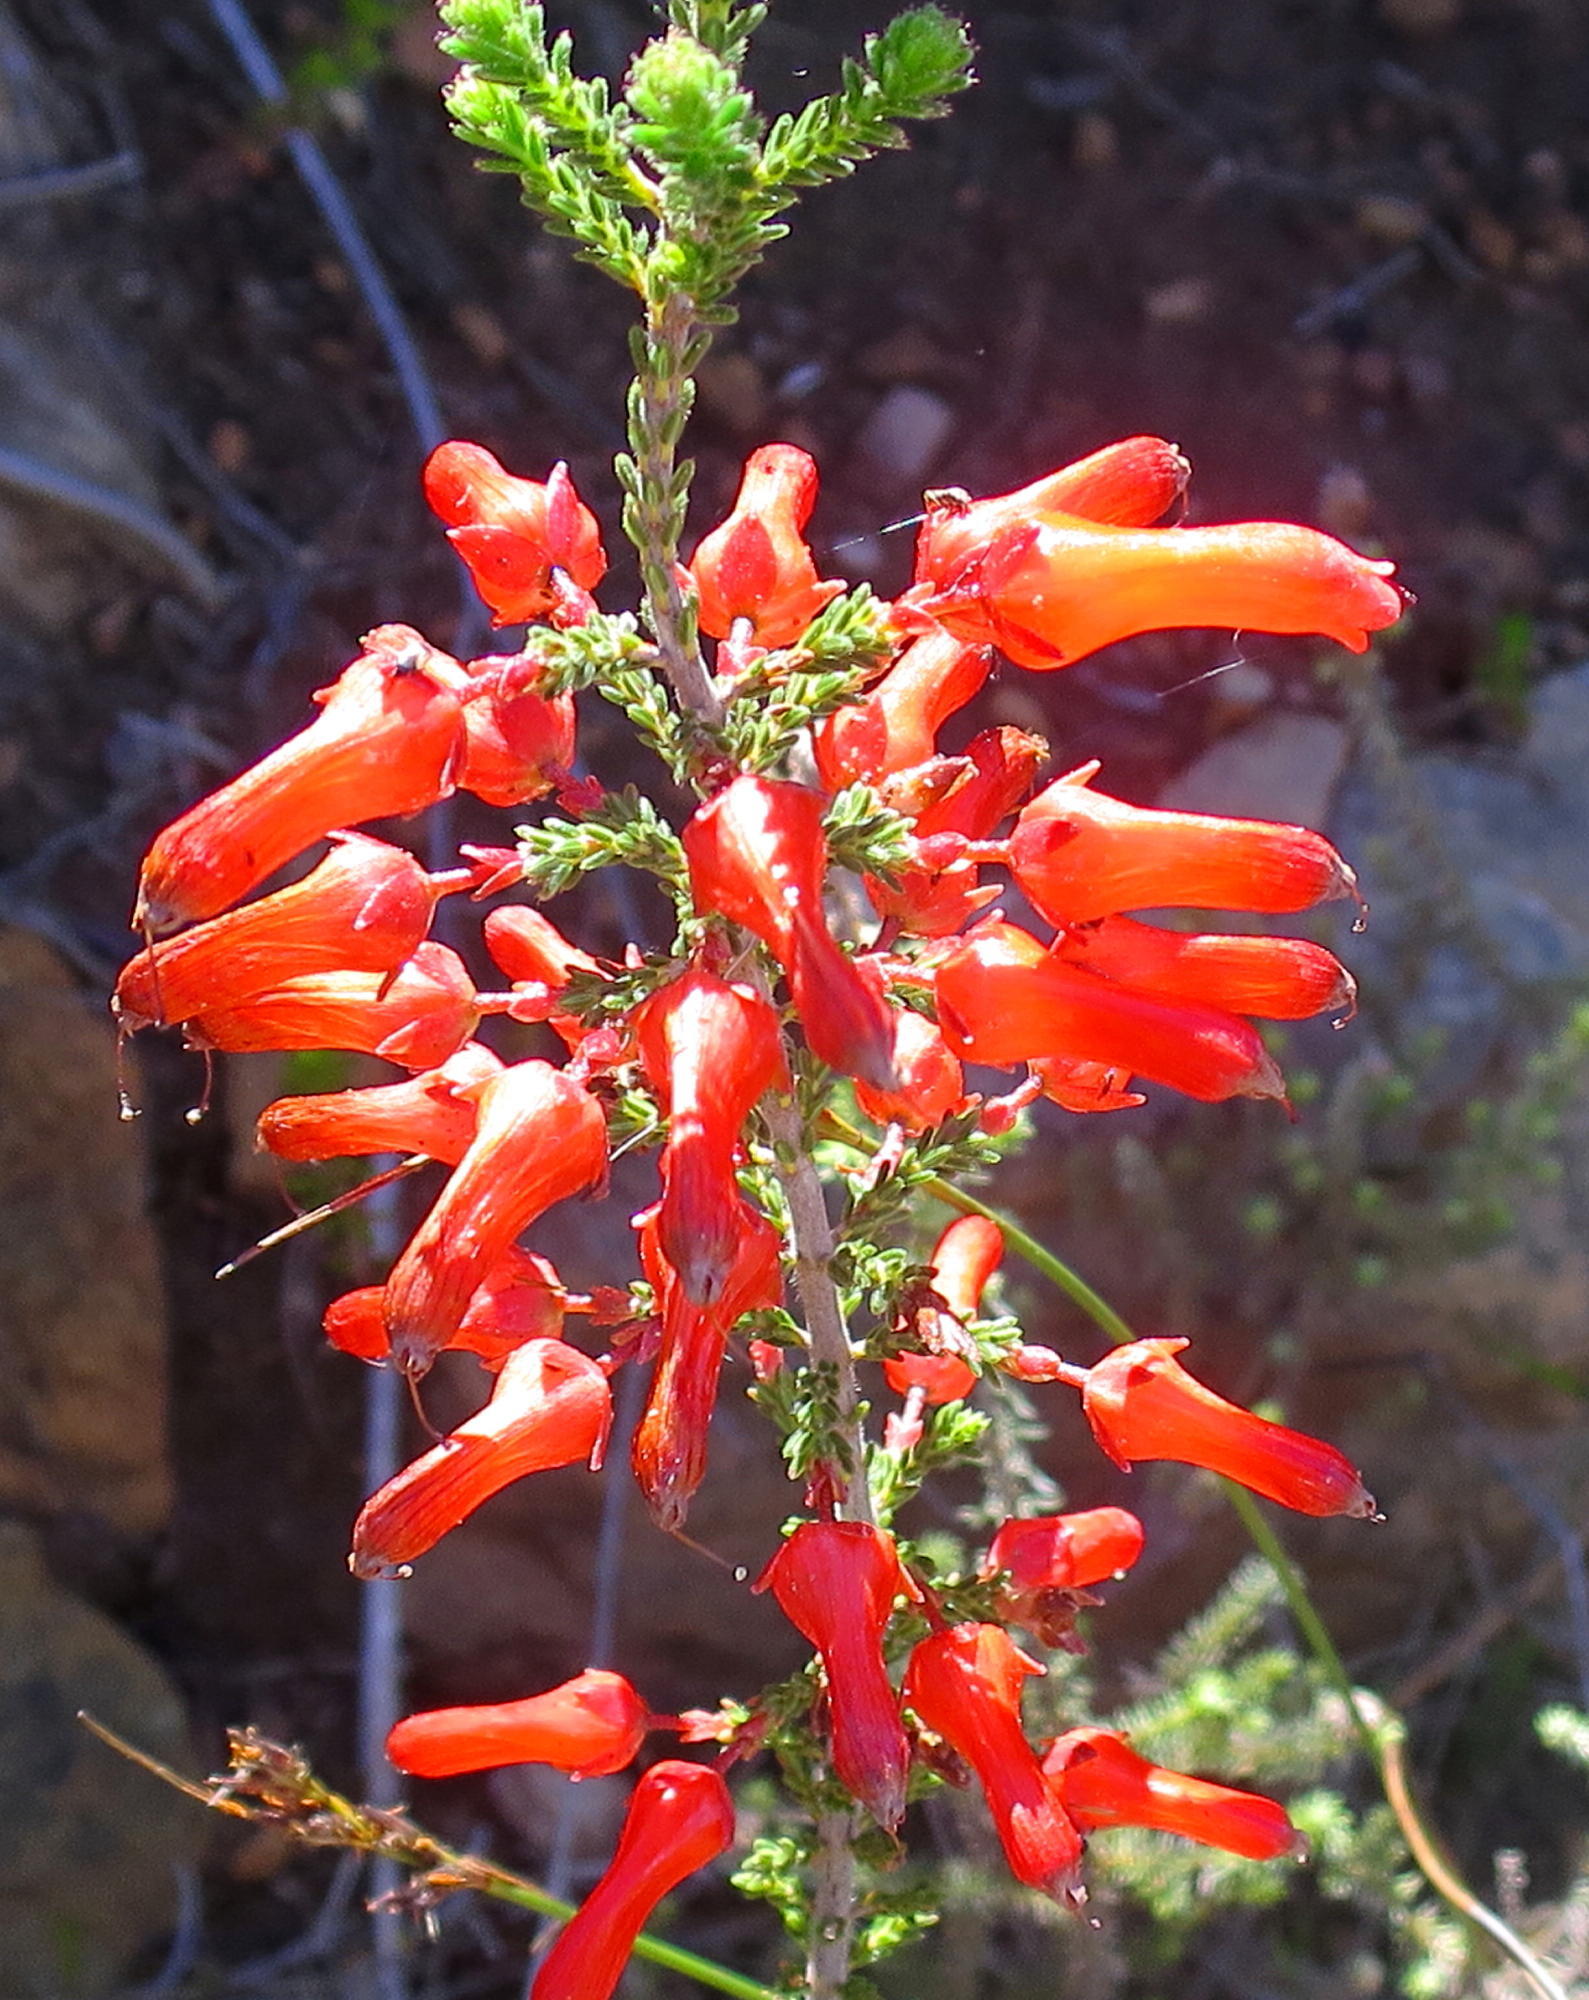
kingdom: Plantae
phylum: Tracheophyta
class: Magnoliopsida
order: Ericales
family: Ericaceae
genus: Erica
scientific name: Erica inordinata
